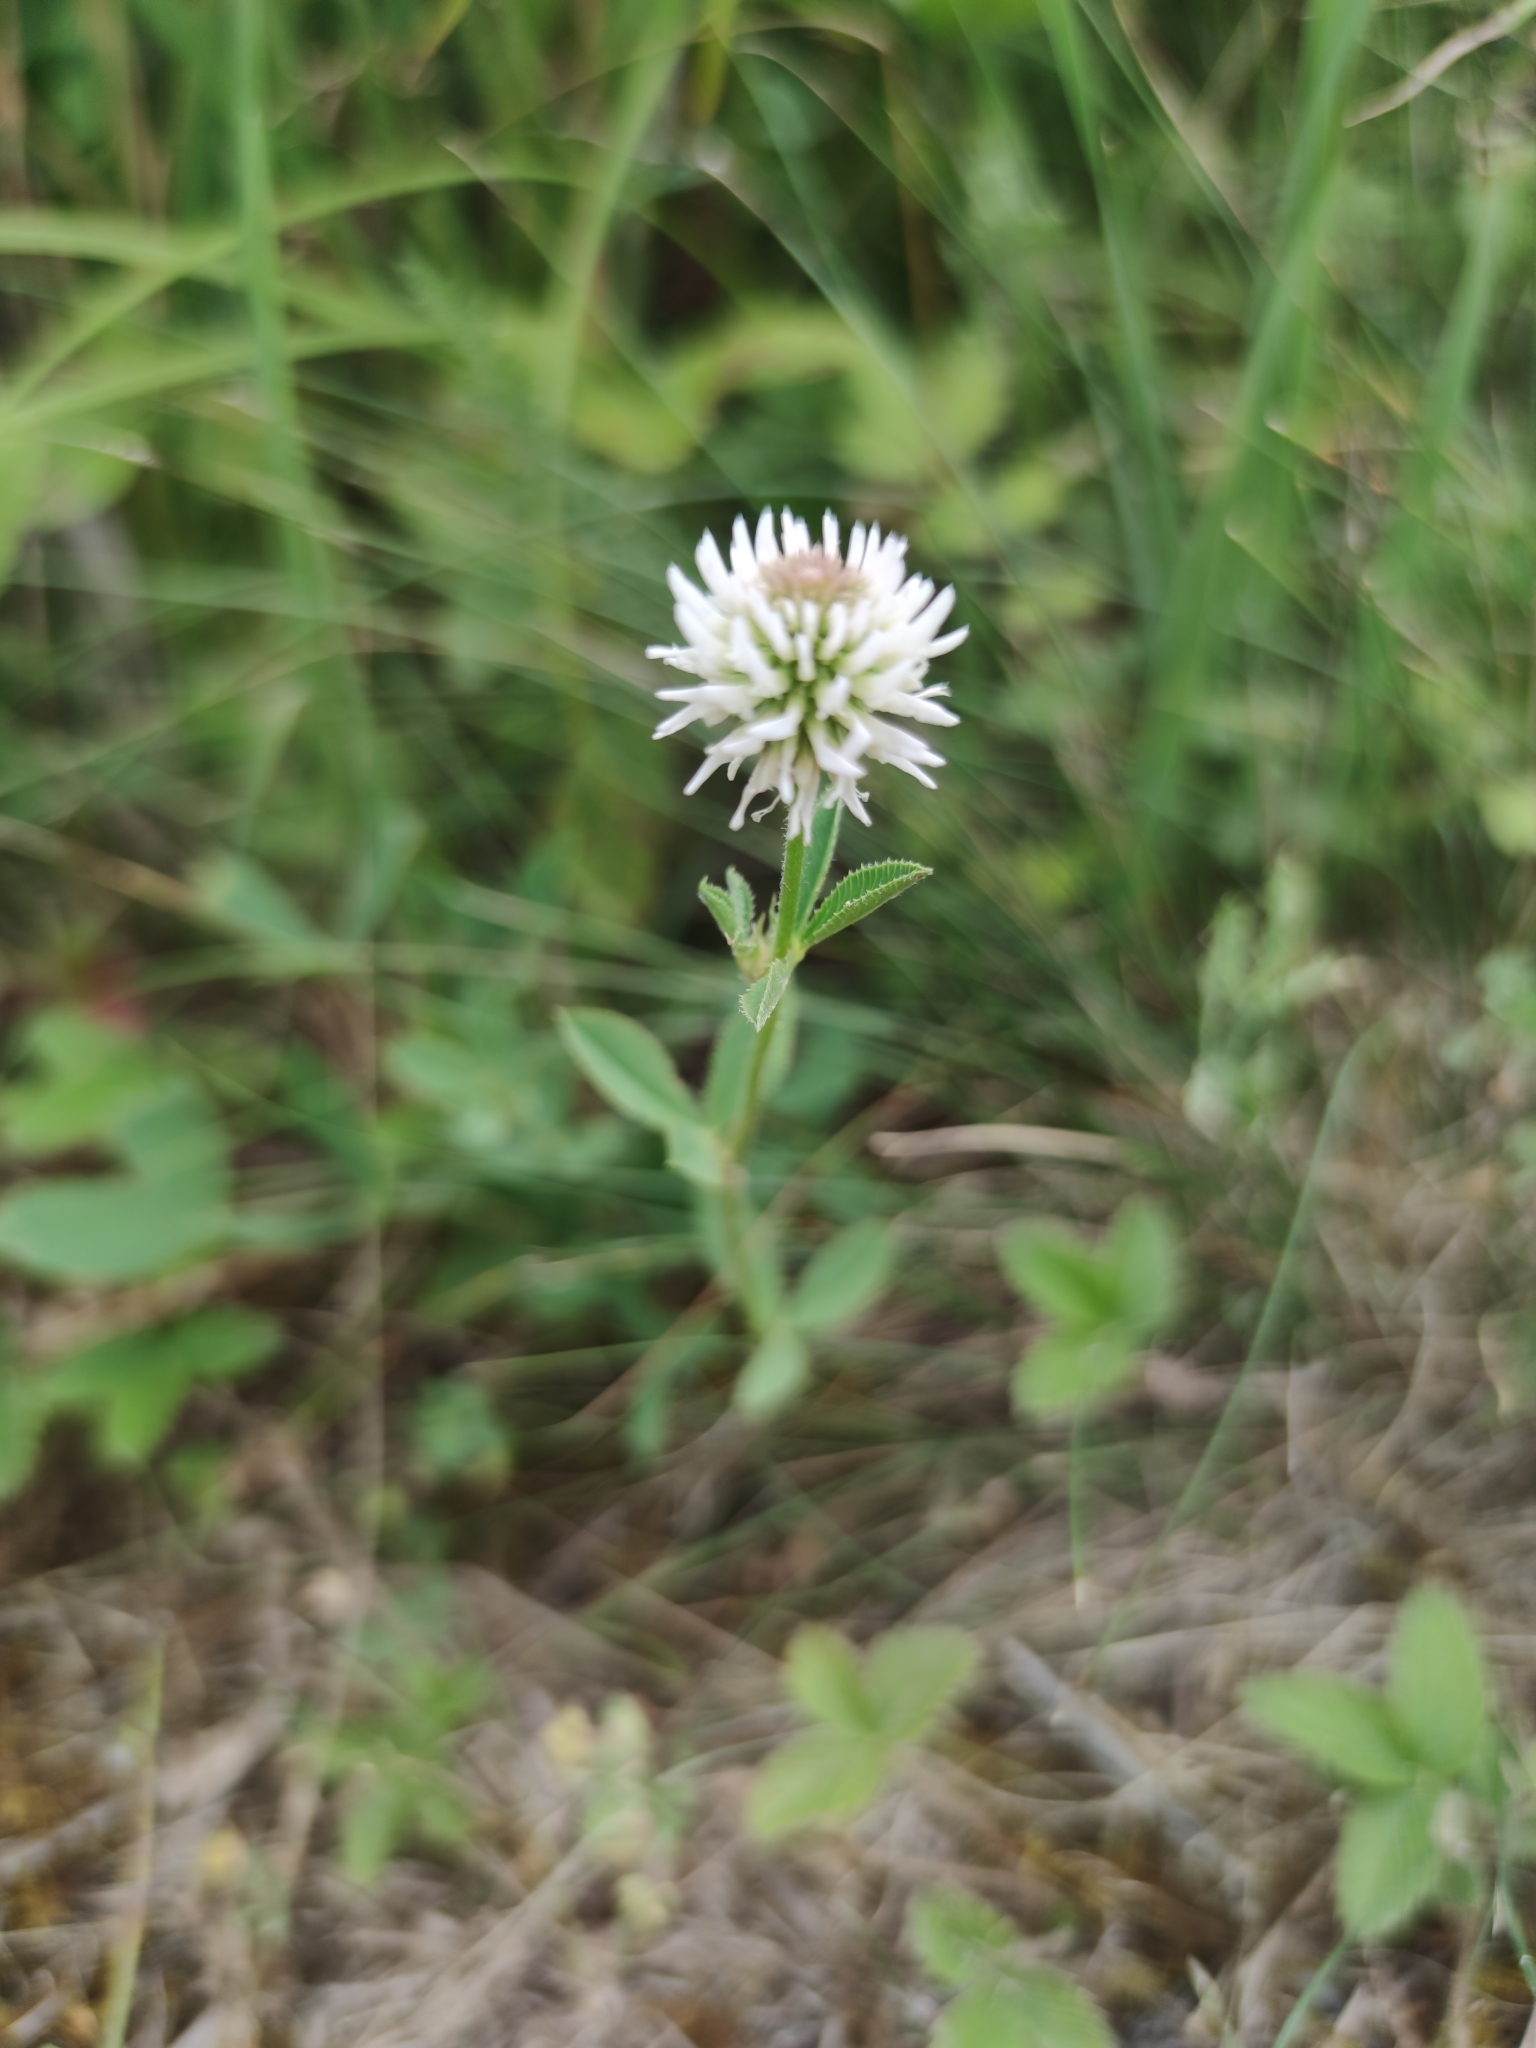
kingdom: Plantae
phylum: Tracheophyta
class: Magnoliopsida
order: Fabales
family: Fabaceae
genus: Trifolium
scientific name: Trifolium montanum
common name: Mountain clover
